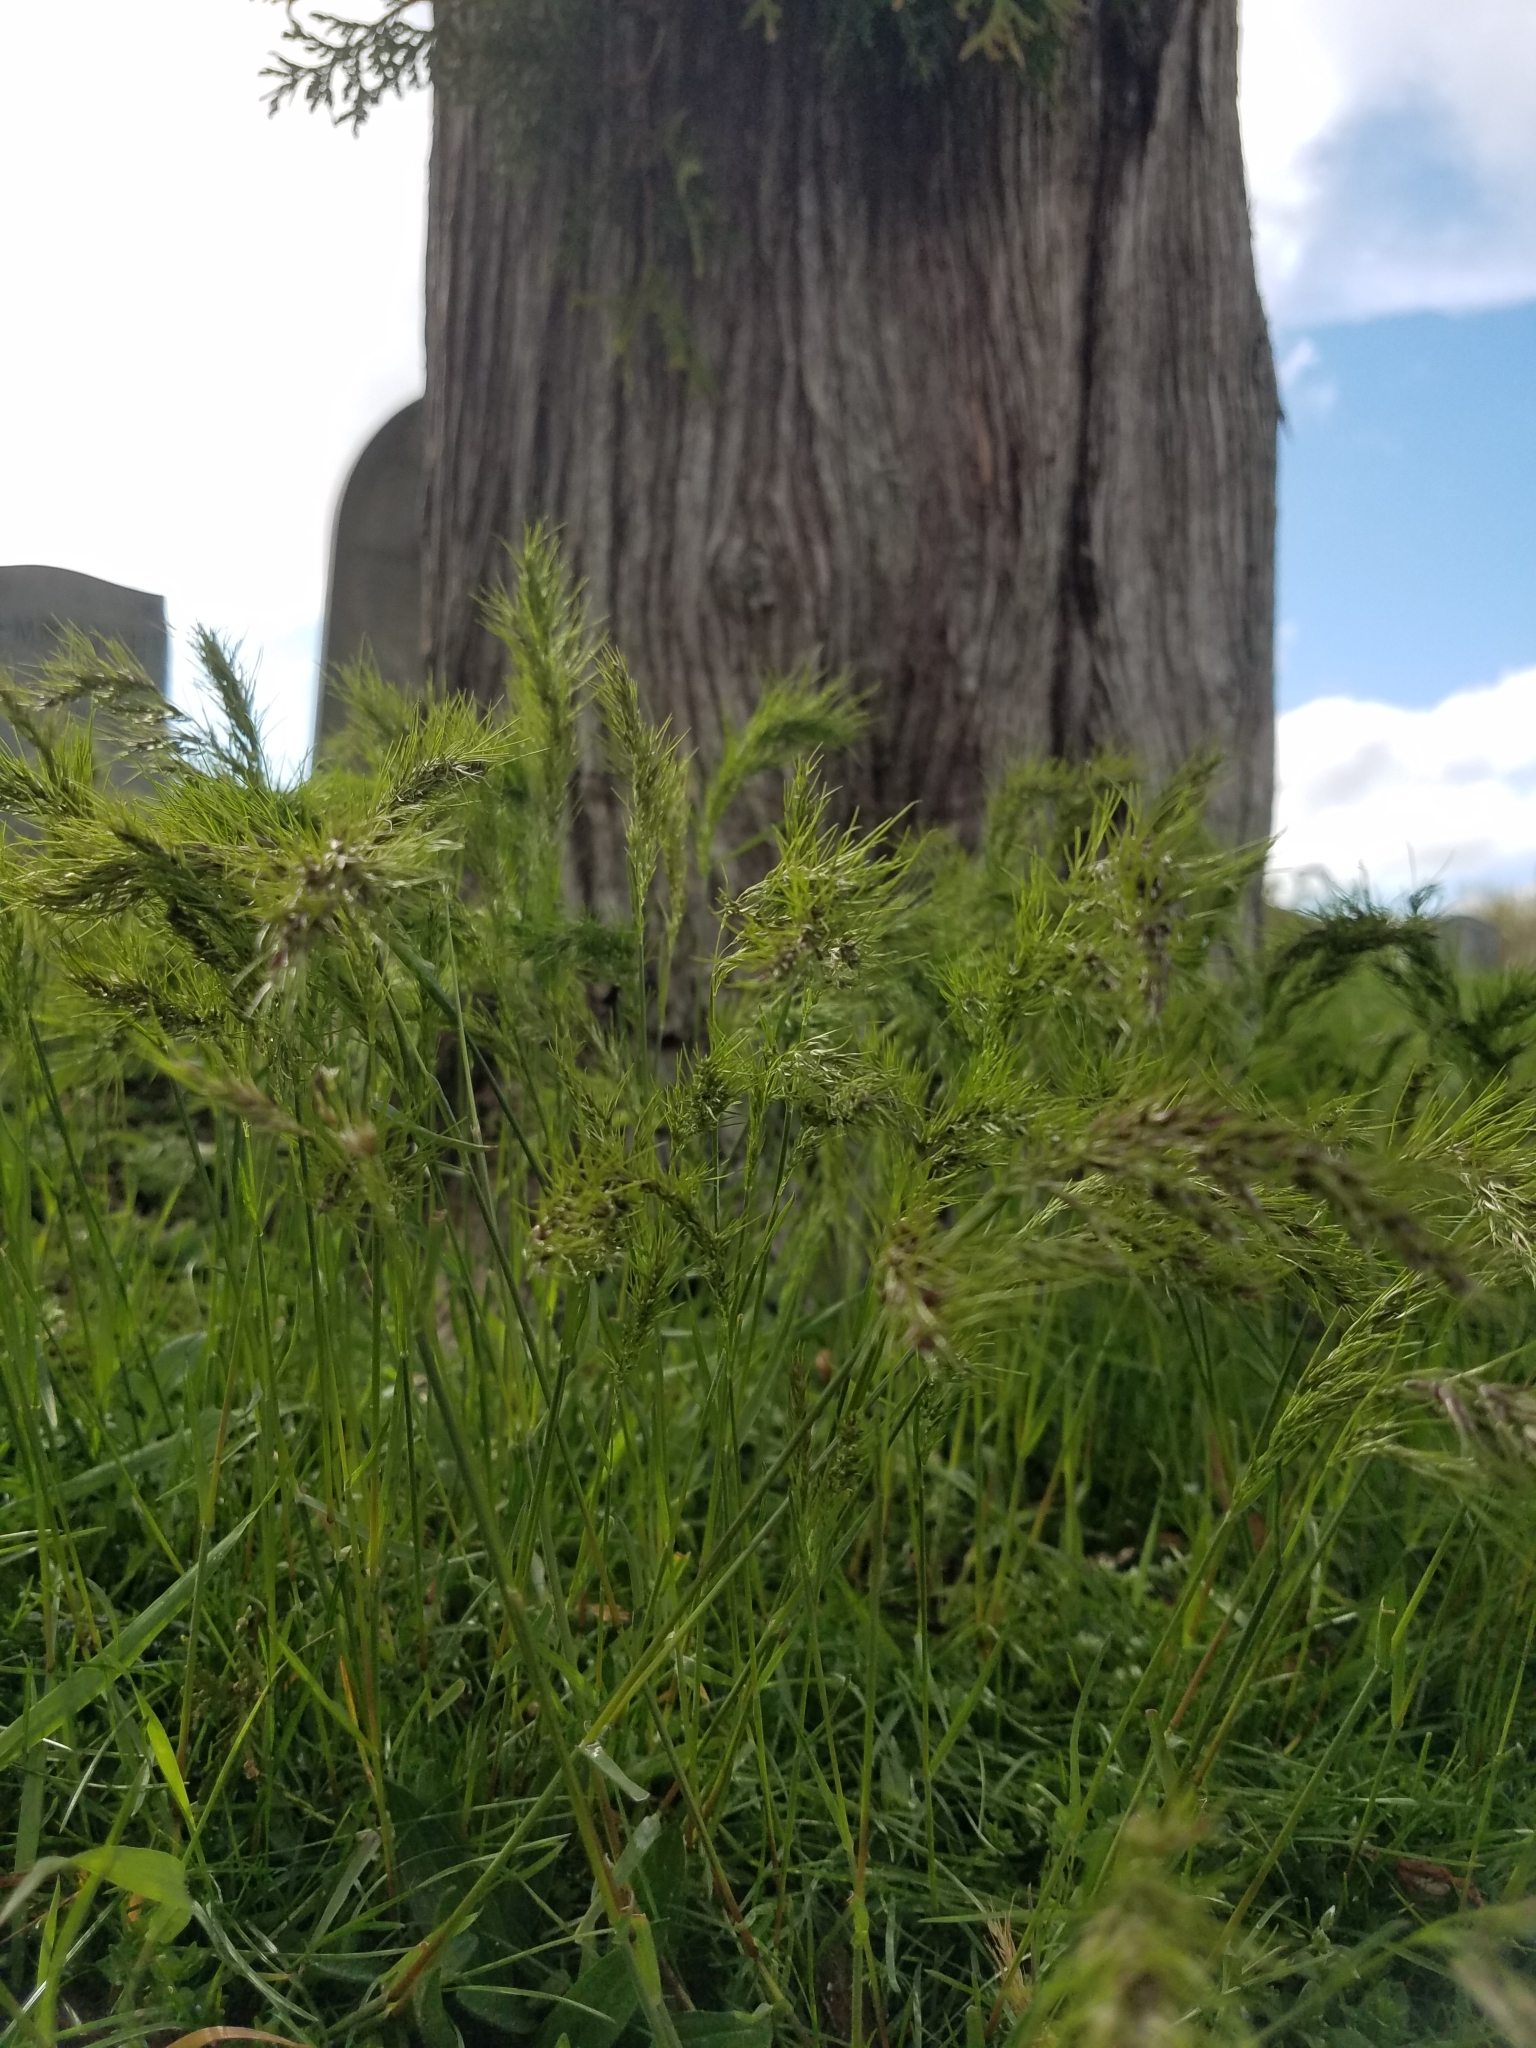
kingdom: Plantae
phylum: Tracheophyta
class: Liliopsida
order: Poales
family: Poaceae
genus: Poa
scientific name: Poa bulbosa
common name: Bulbous bluegrass
